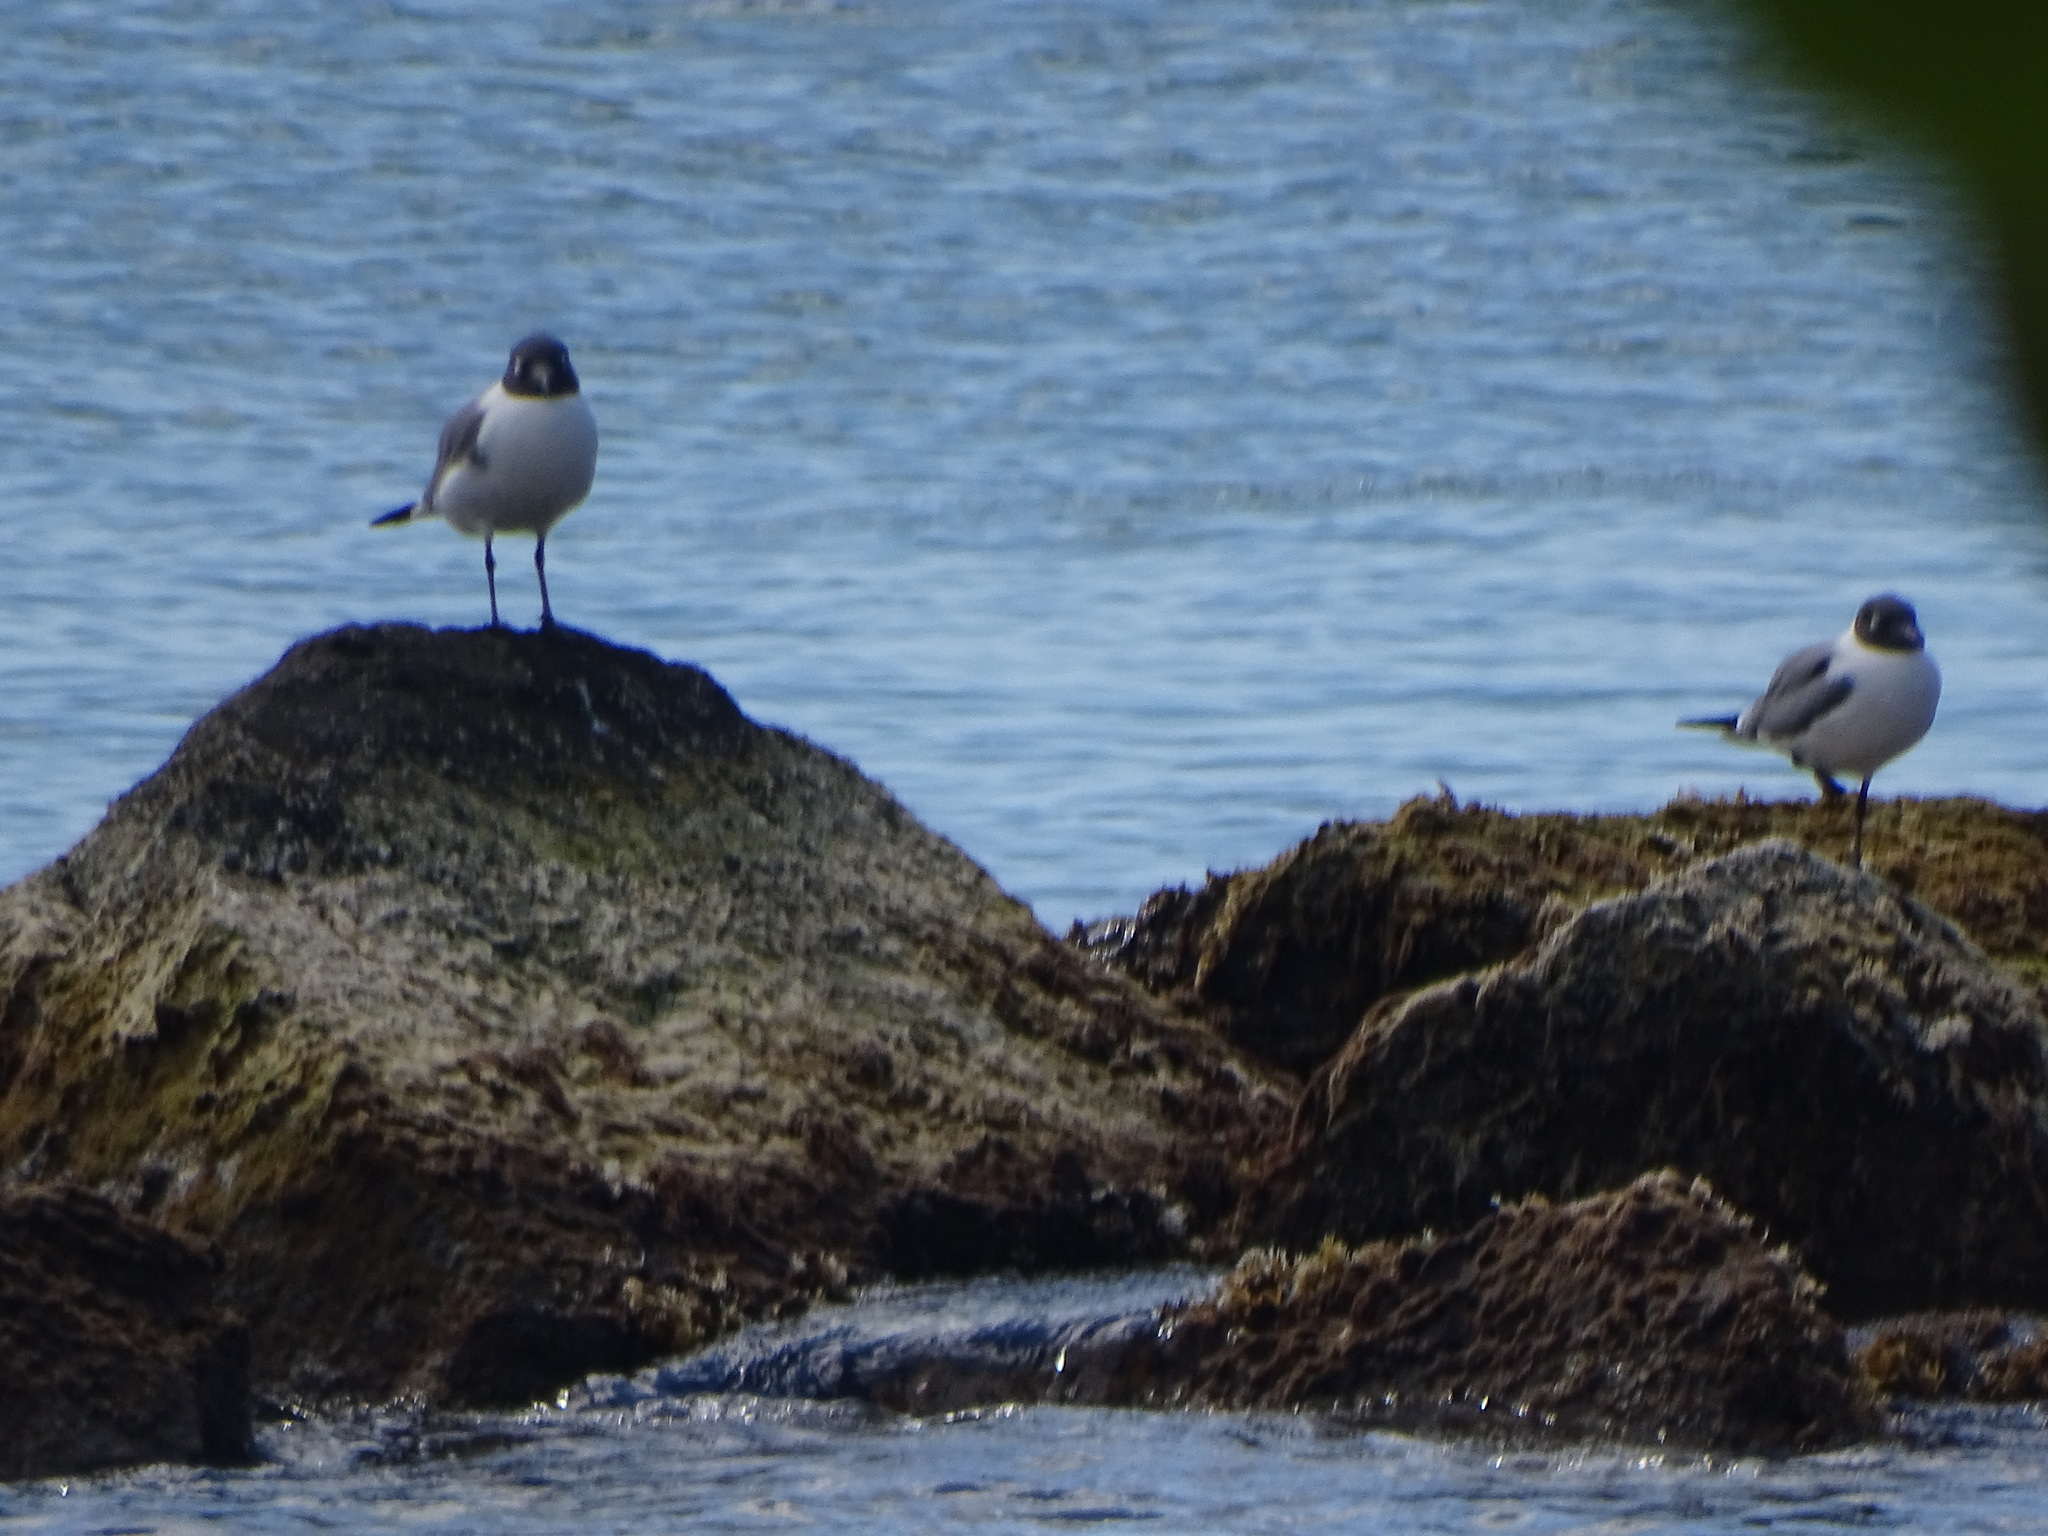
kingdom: Animalia
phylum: Chordata
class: Aves
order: Charadriiformes
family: Laridae
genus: Leucophaeus
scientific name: Leucophaeus atricilla
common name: Laughing gull
